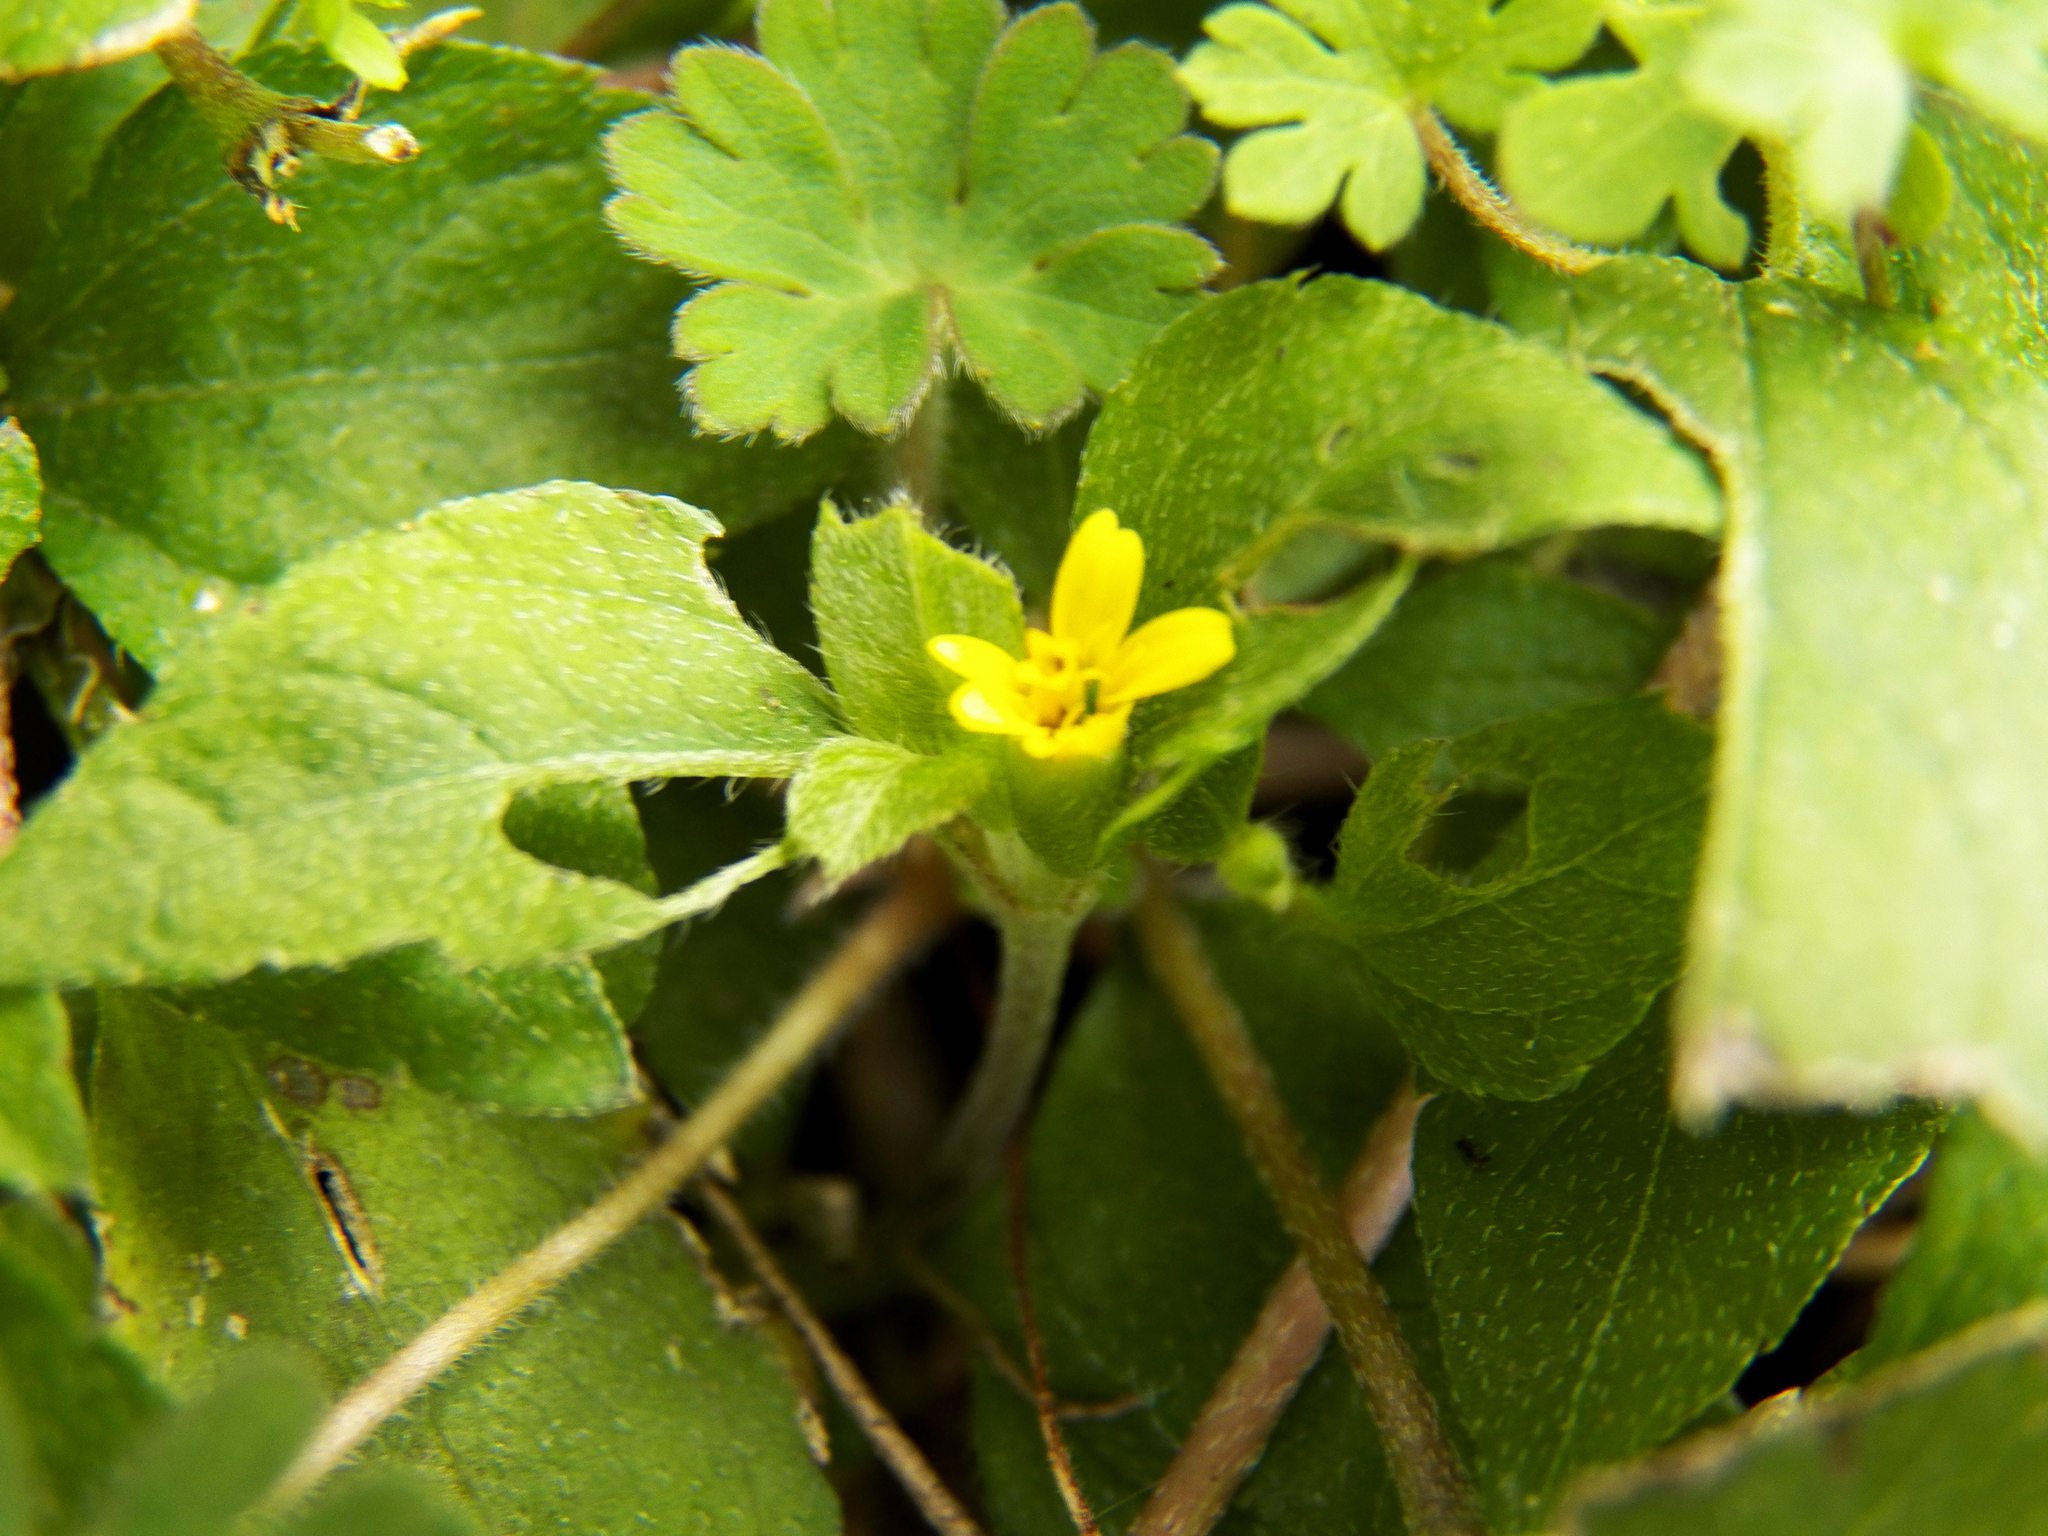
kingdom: Plantae
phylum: Tracheophyta
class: Magnoliopsida
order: Asterales
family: Asteraceae
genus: Calyptocarpus
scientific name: Calyptocarpus vialis
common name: Straggler daisy
